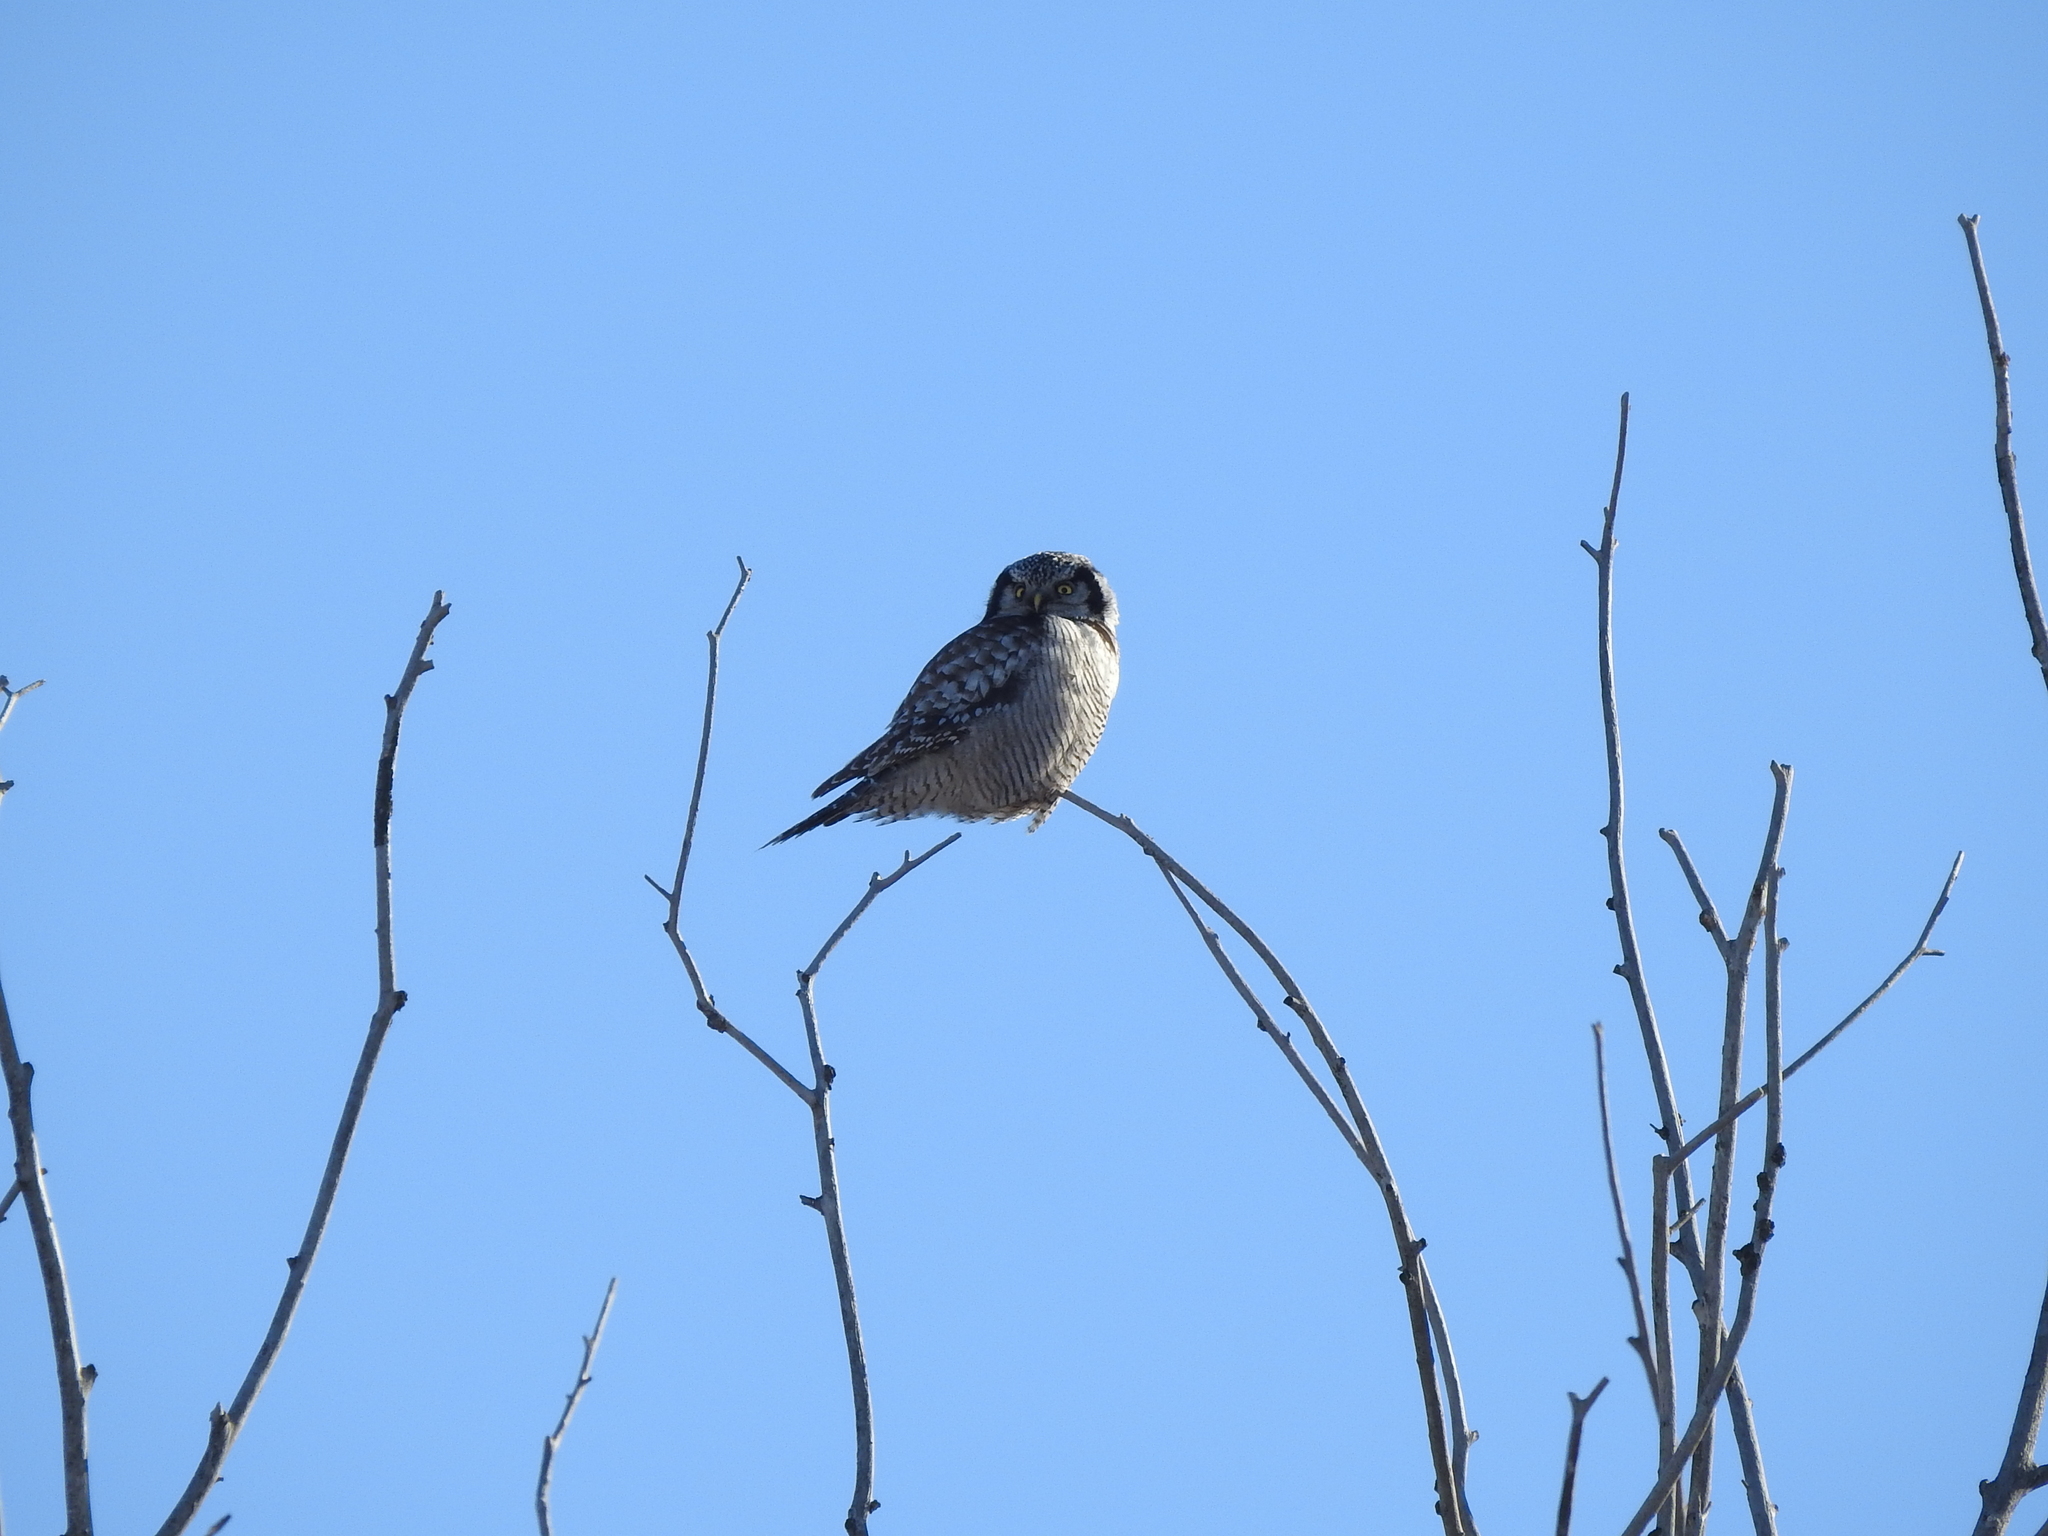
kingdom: Animalia
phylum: Chordata
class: Aves
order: Strigiformes
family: Strigidae
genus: Surnia
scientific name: Surnia ulula
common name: Northern hawk-owl
